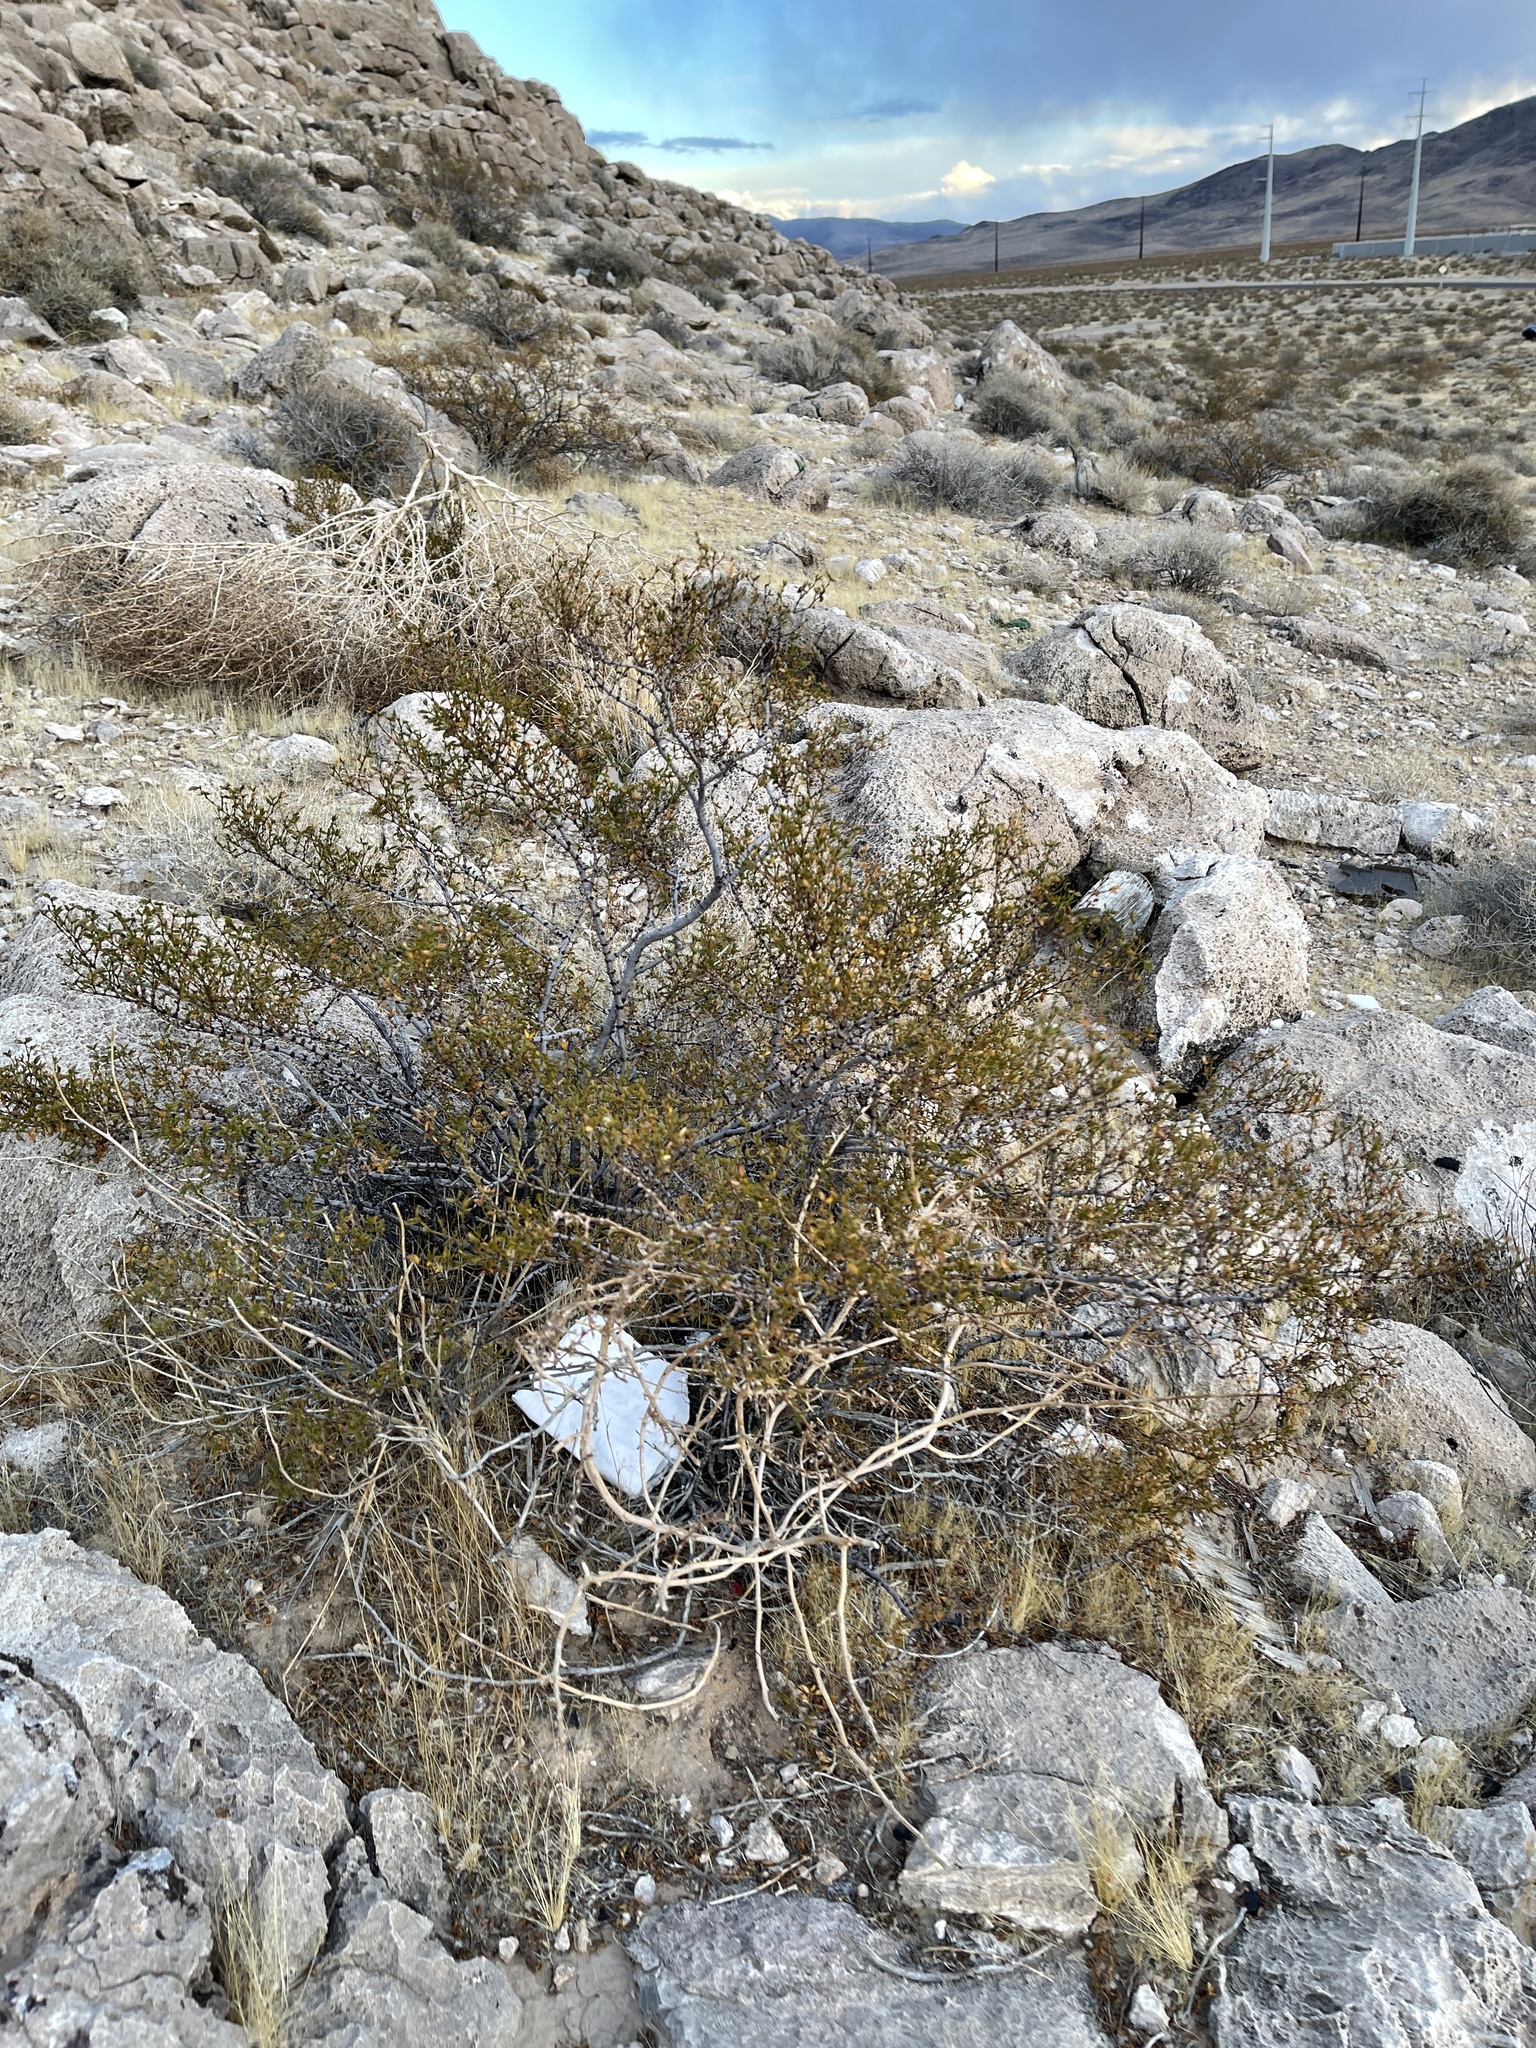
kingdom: Plantae
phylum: Tracheophyta
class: Magnoliopsida
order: Zygophyllales
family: Zygophyllaceae
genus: Larrea
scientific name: Larrea tridentata
